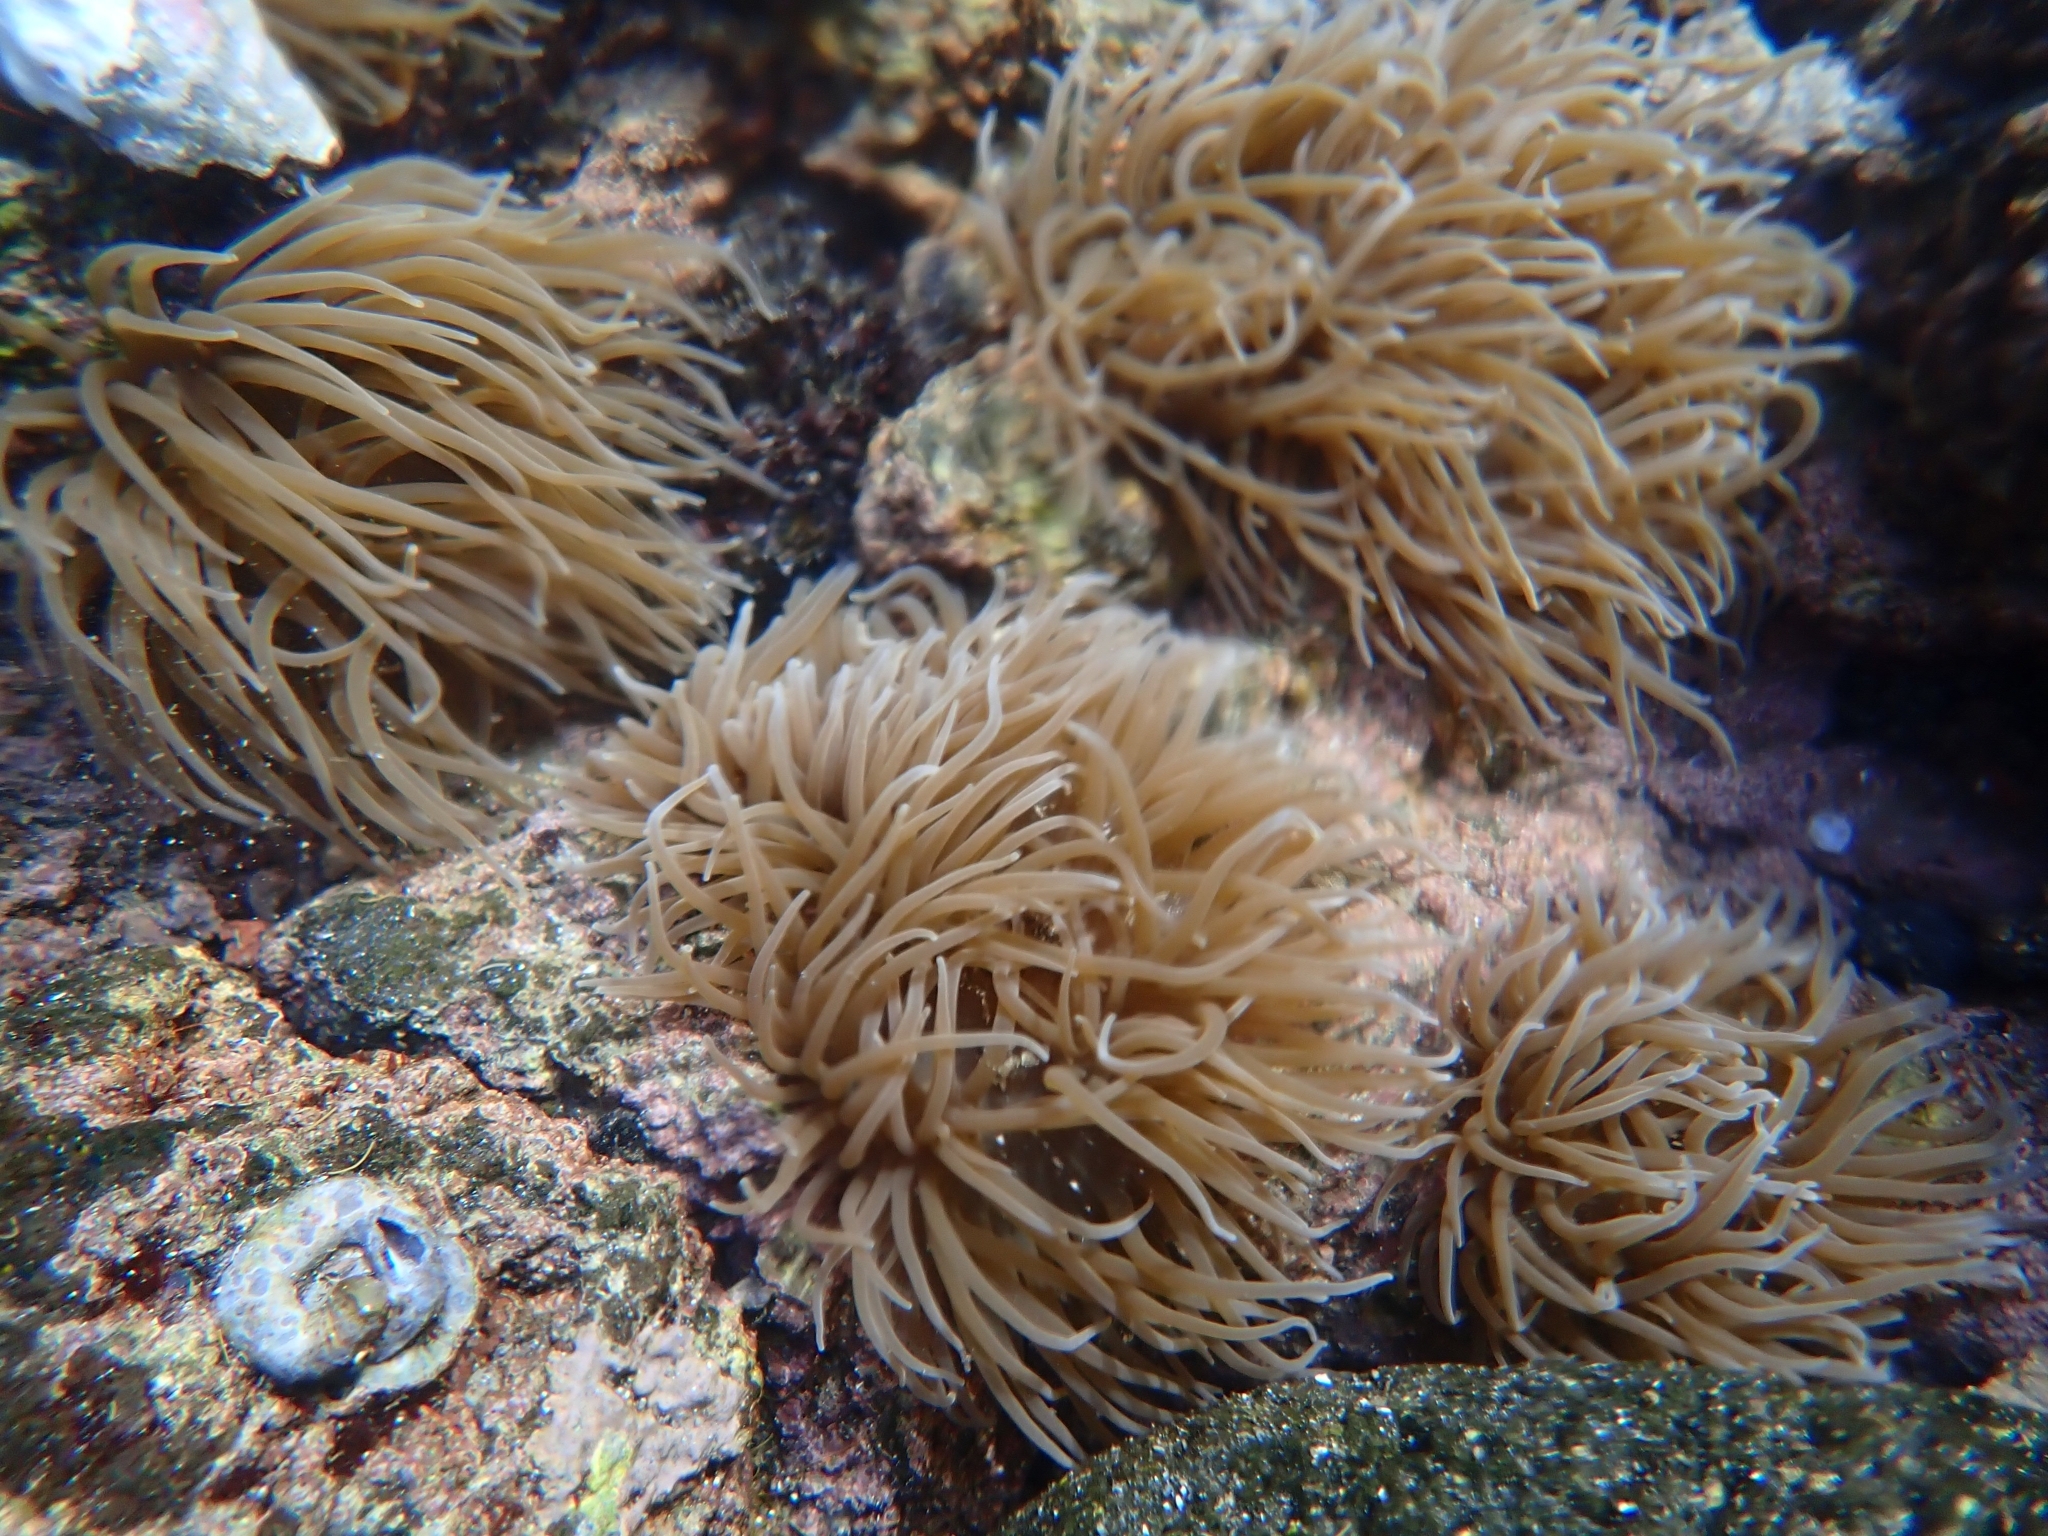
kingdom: Animalia
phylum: Cnidaria
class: Anthozoa
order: Actiniaria
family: Actiniidae
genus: Anemonia
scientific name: Anemonia viridis
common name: Snakelocks anemone
